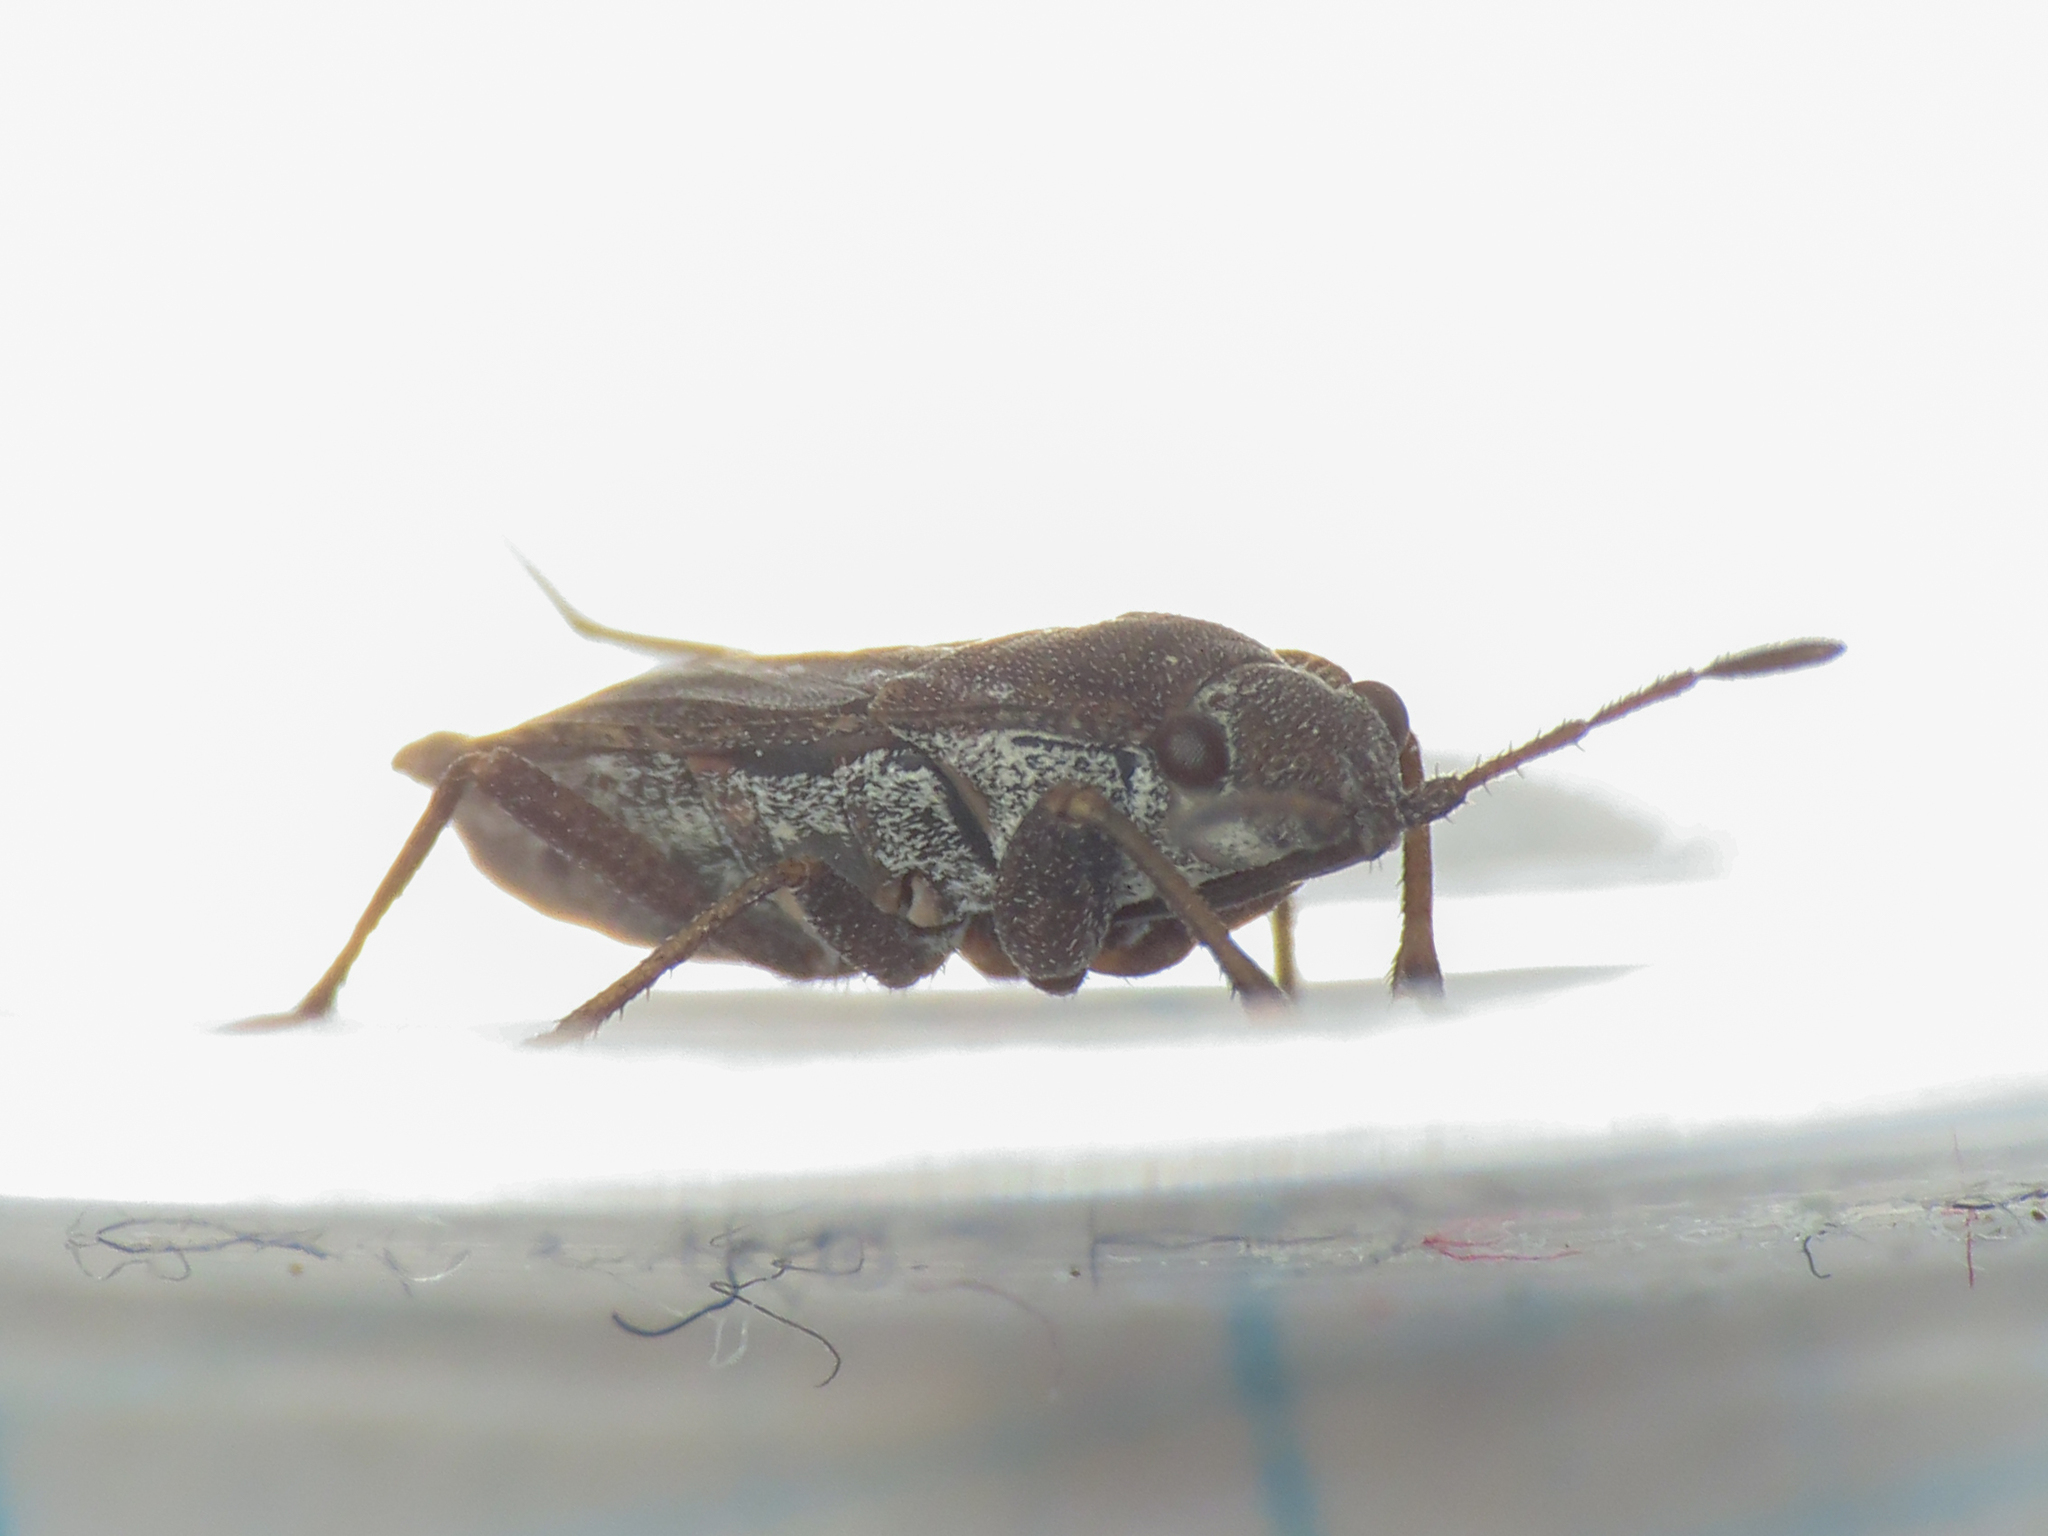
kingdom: Animalia
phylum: Arthropoda
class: Insecta
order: Hemiptera
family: Rhyparochromidae
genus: Gonianotus
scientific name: Gonianotus marginepunctatus
